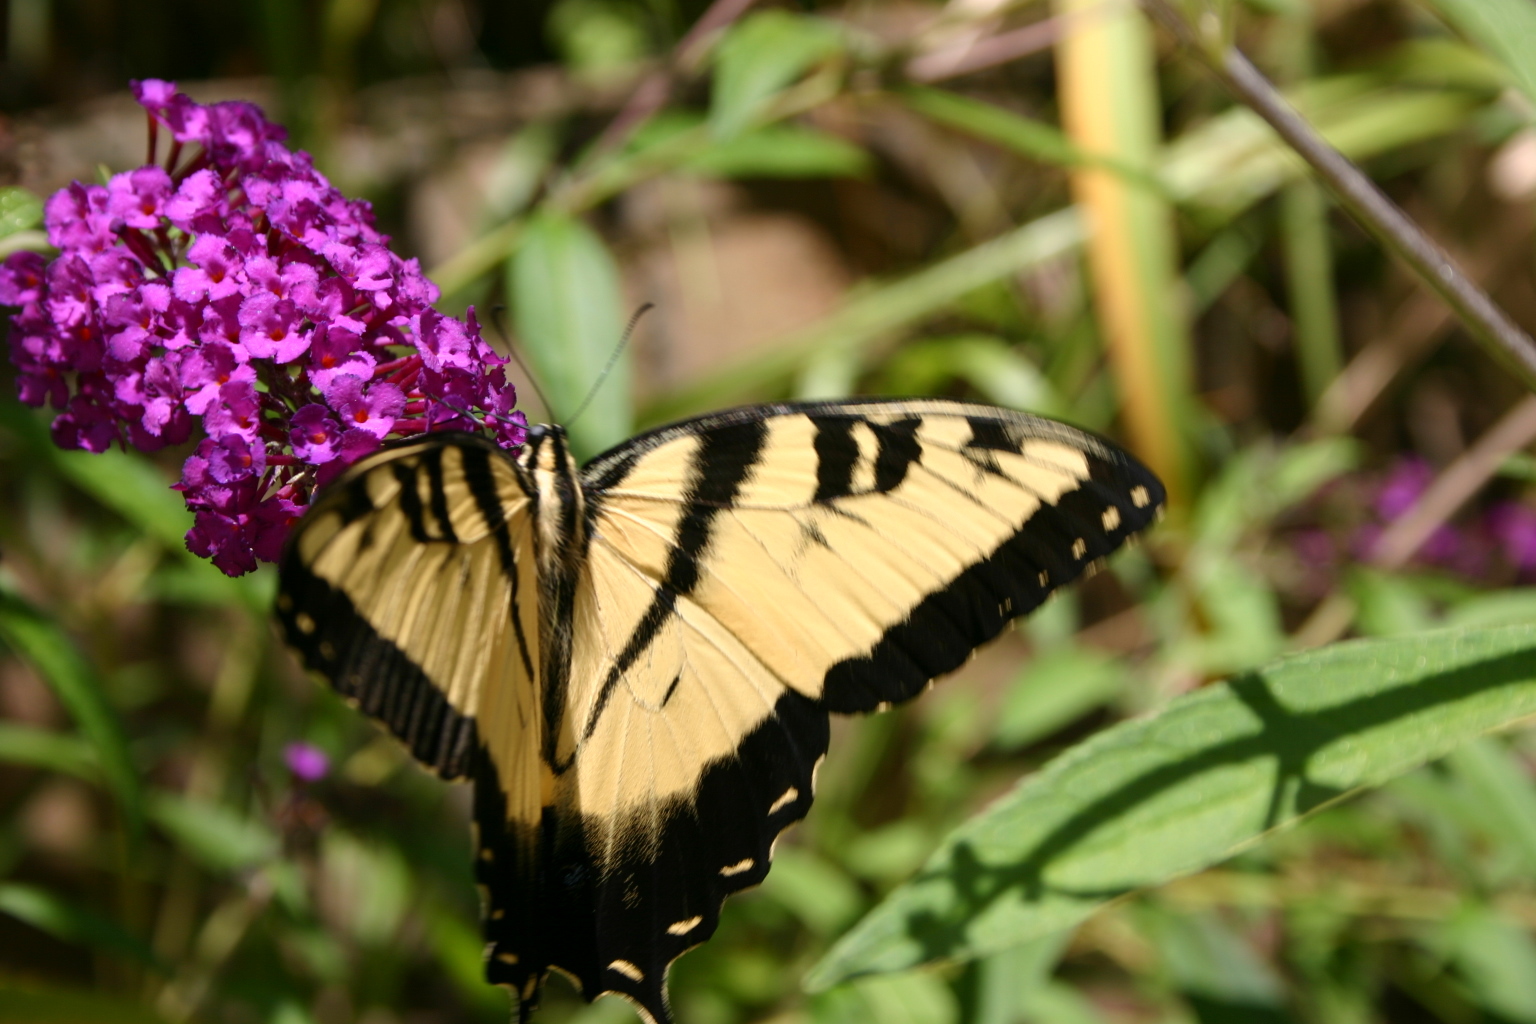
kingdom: Animalia
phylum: Arthropoda
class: Insecta
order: Lepidoptera
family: Papilionidae
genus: Papilio
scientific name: Papilio glaucus
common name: Tiger swallowtail
